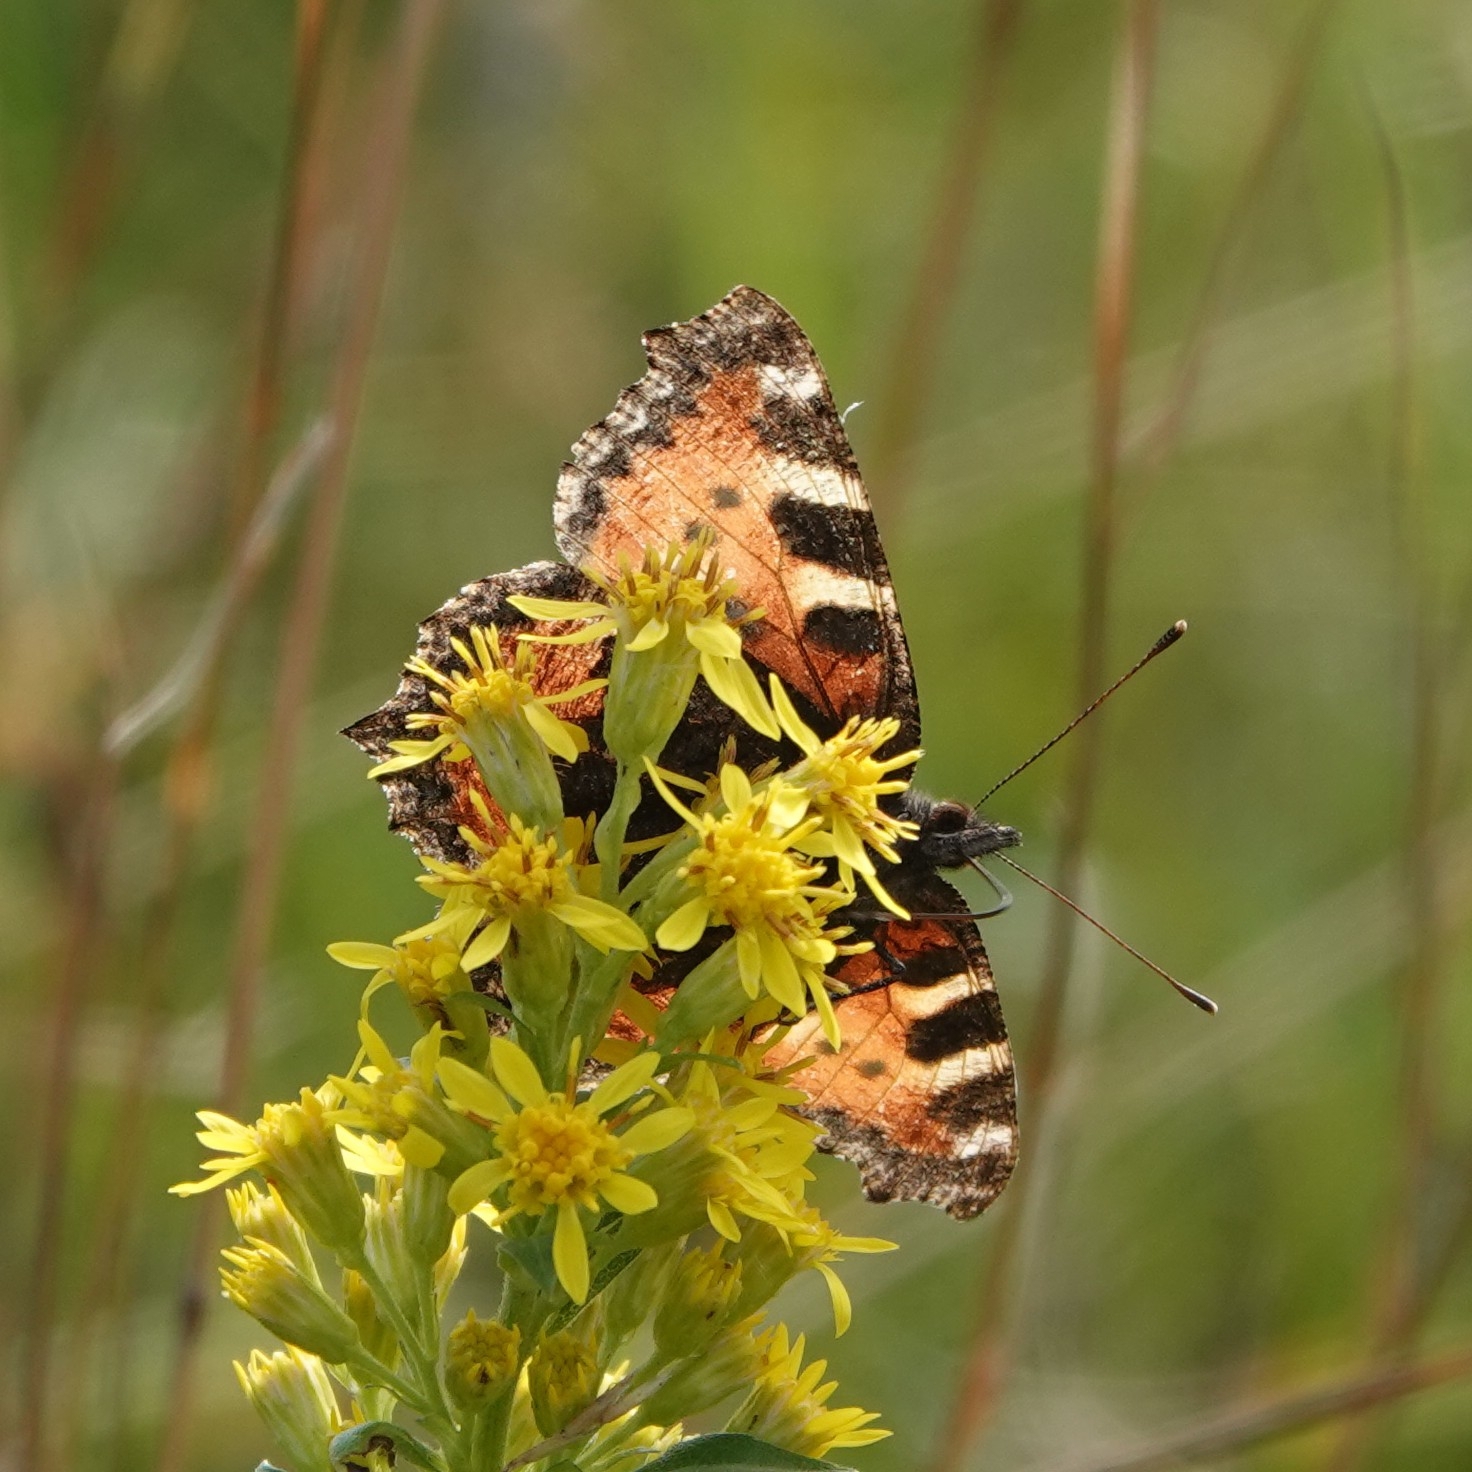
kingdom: Animalia
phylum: Arthropoda
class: Insecta
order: Lepidoptera
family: Nymphalidae
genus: Aglais
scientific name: Aglais urticae
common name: Small tortoiseshell
